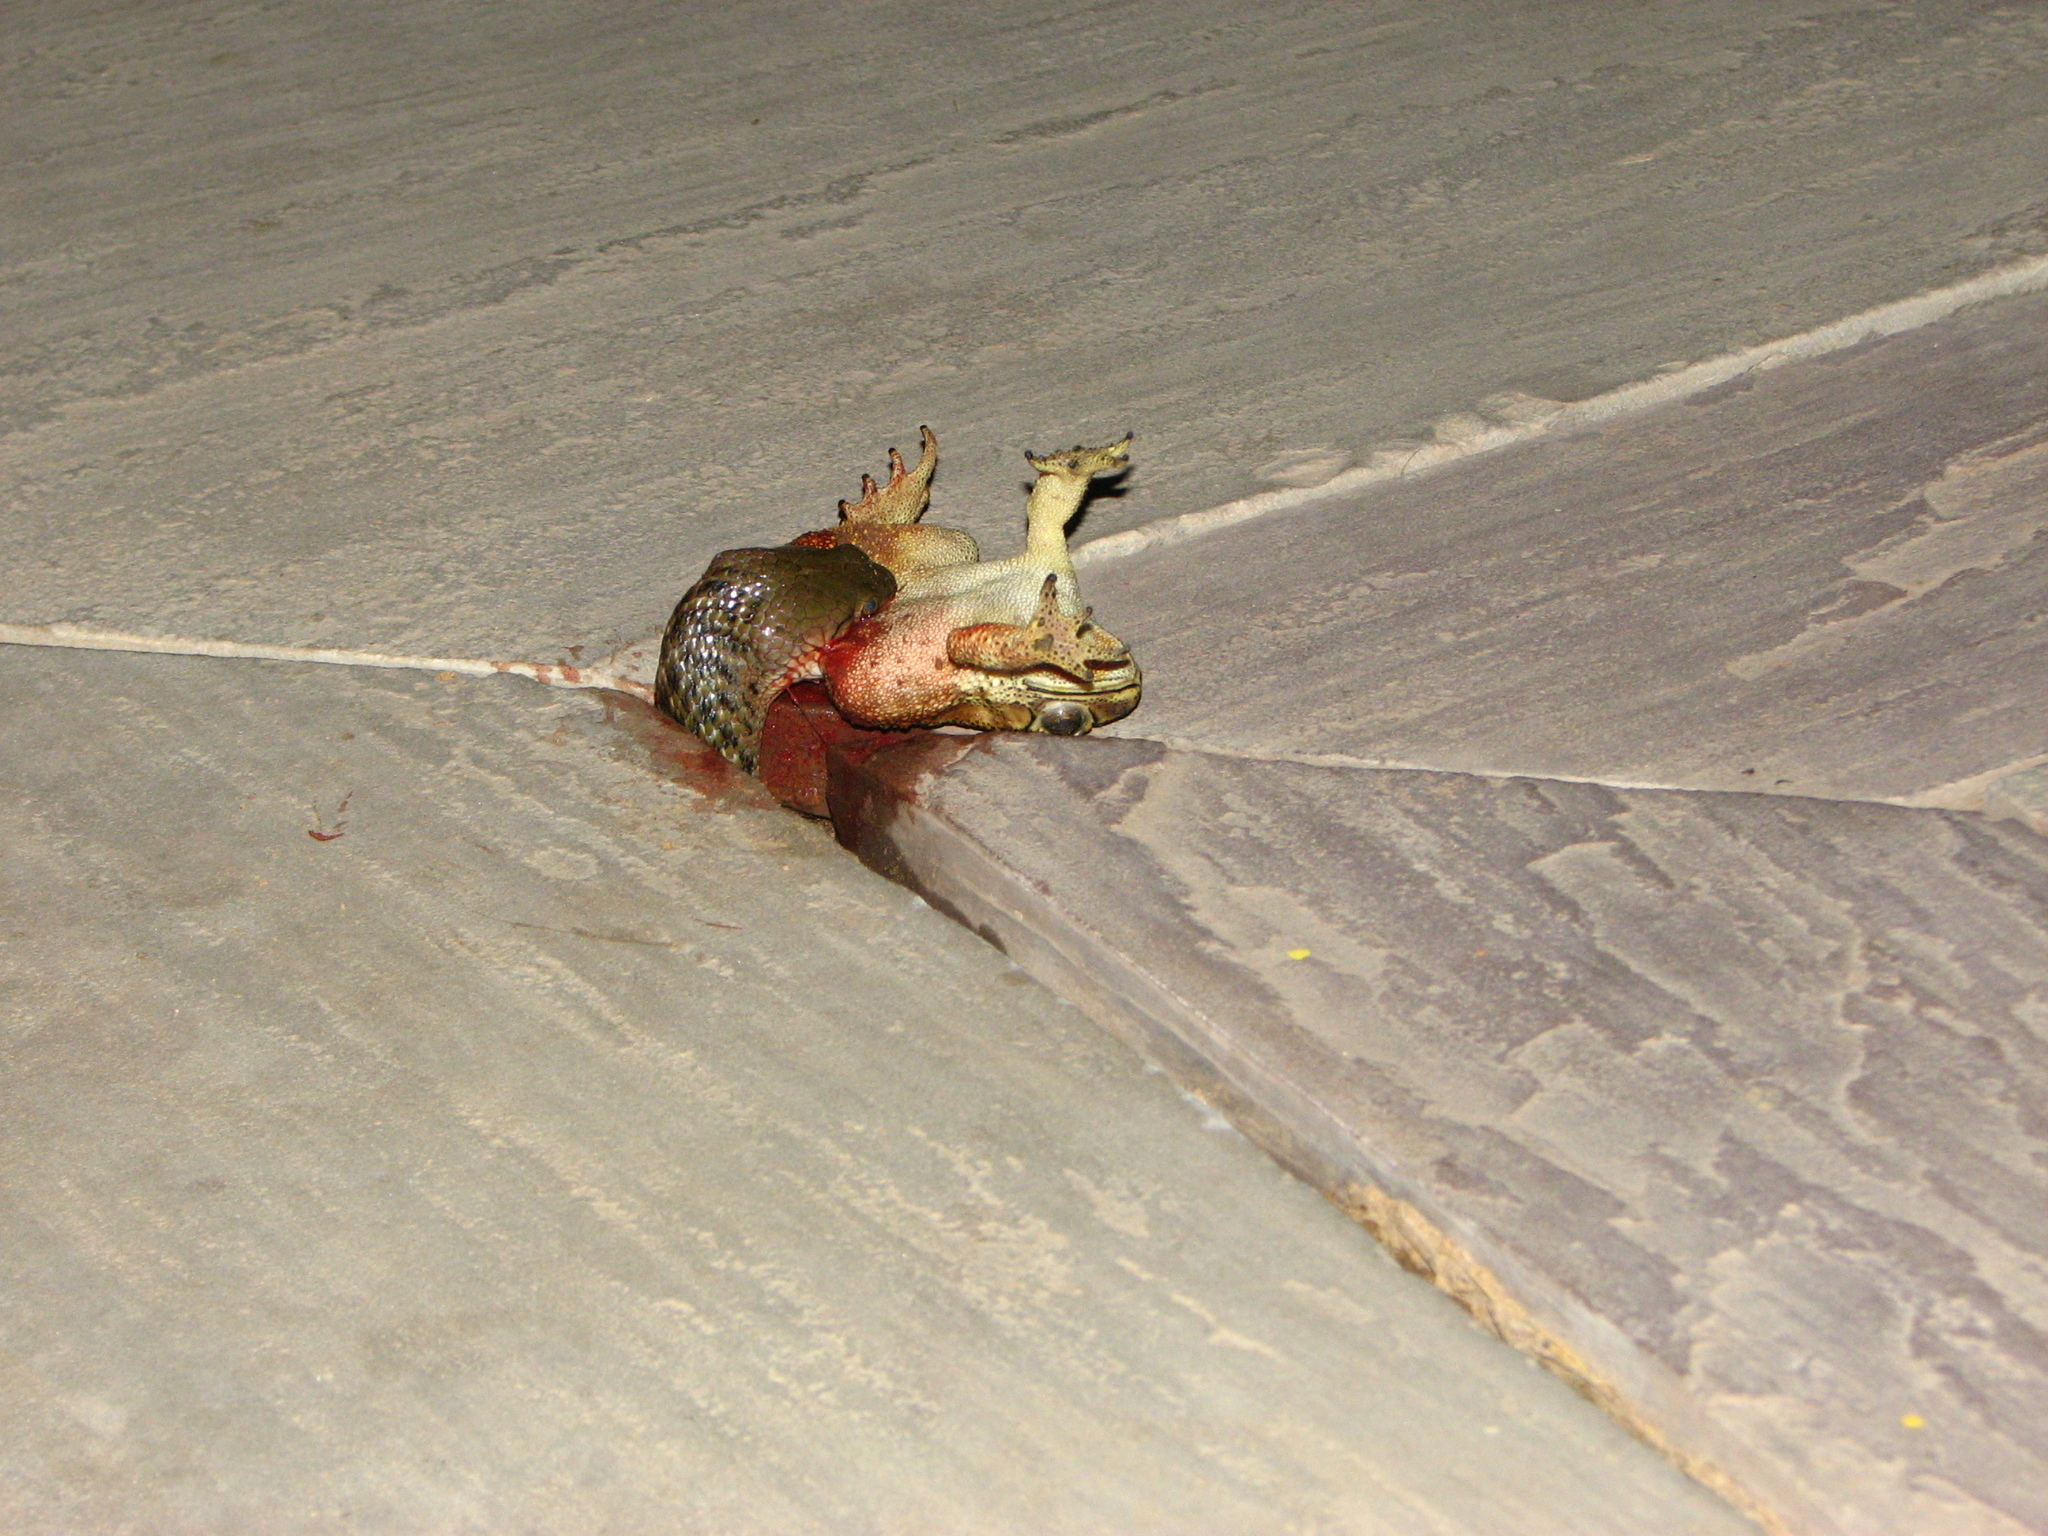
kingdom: Animalia
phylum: Chordata
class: Squamata
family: Colubridae
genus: Fowlea
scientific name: Fowlea piscator
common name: Asiatic water snake
